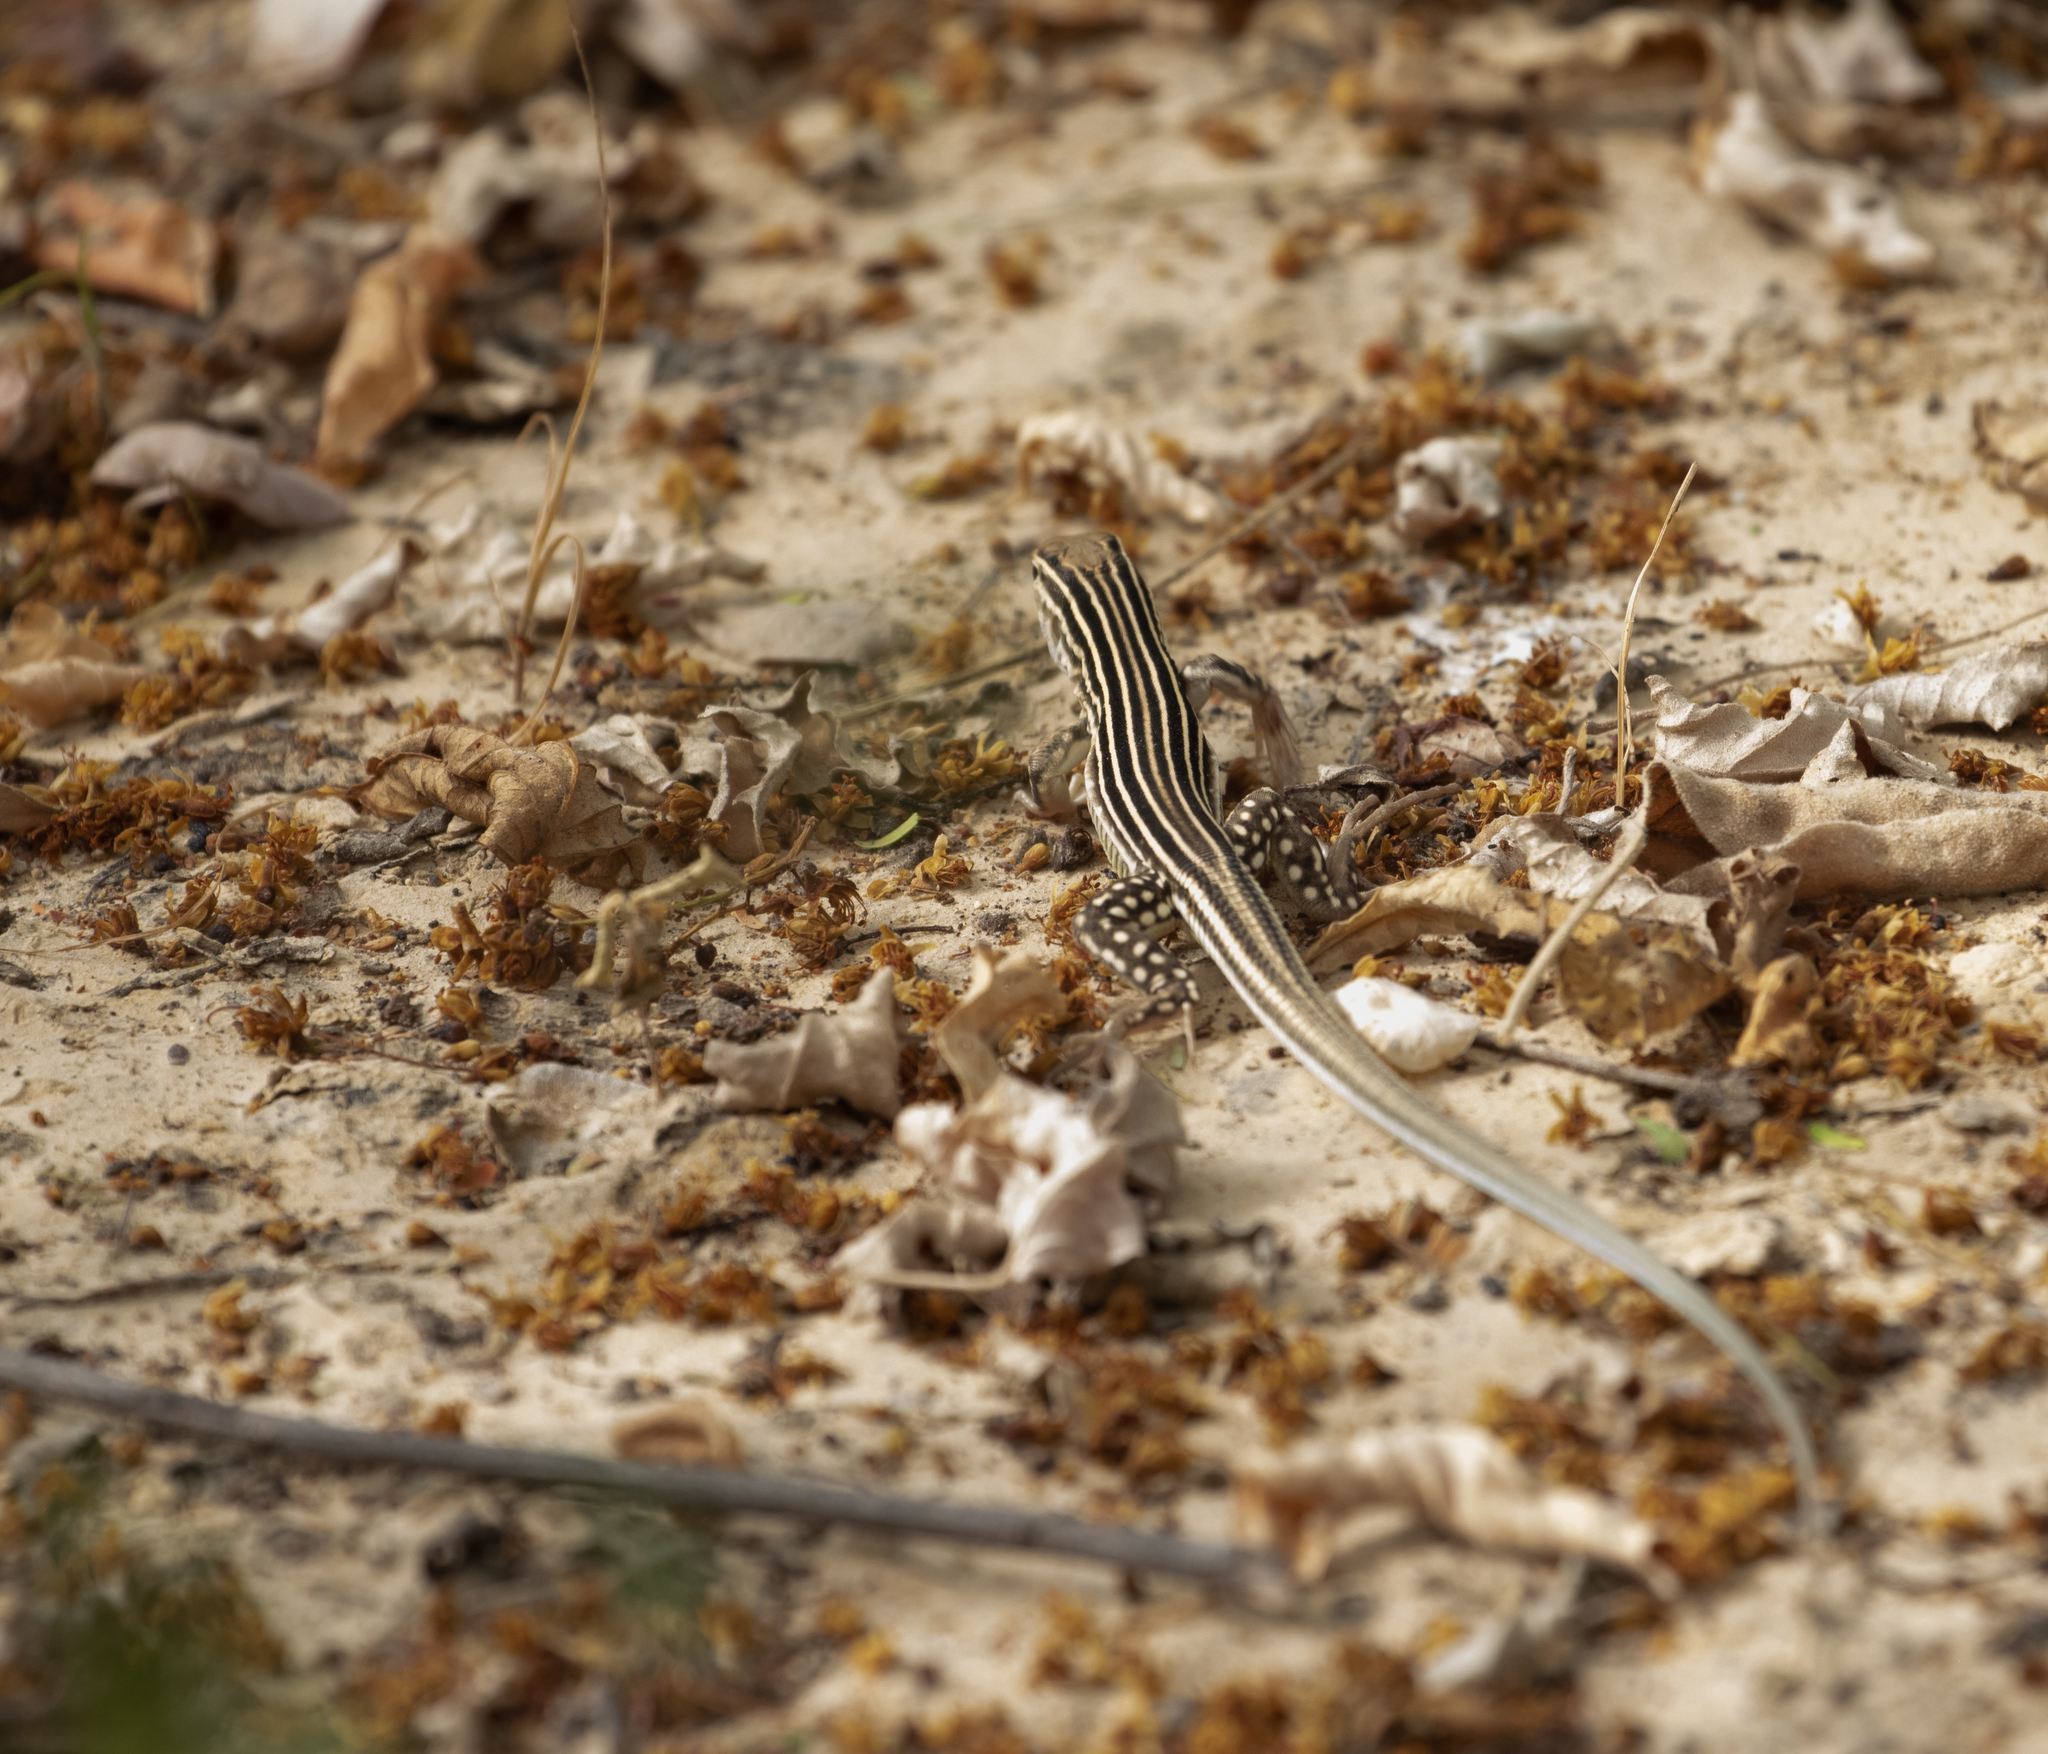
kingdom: Animalia
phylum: Chordata
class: Squamata
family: Teiidae
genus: Cnemidophorus
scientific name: Cnemidophorus arenivagus
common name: Rainbow lizard
